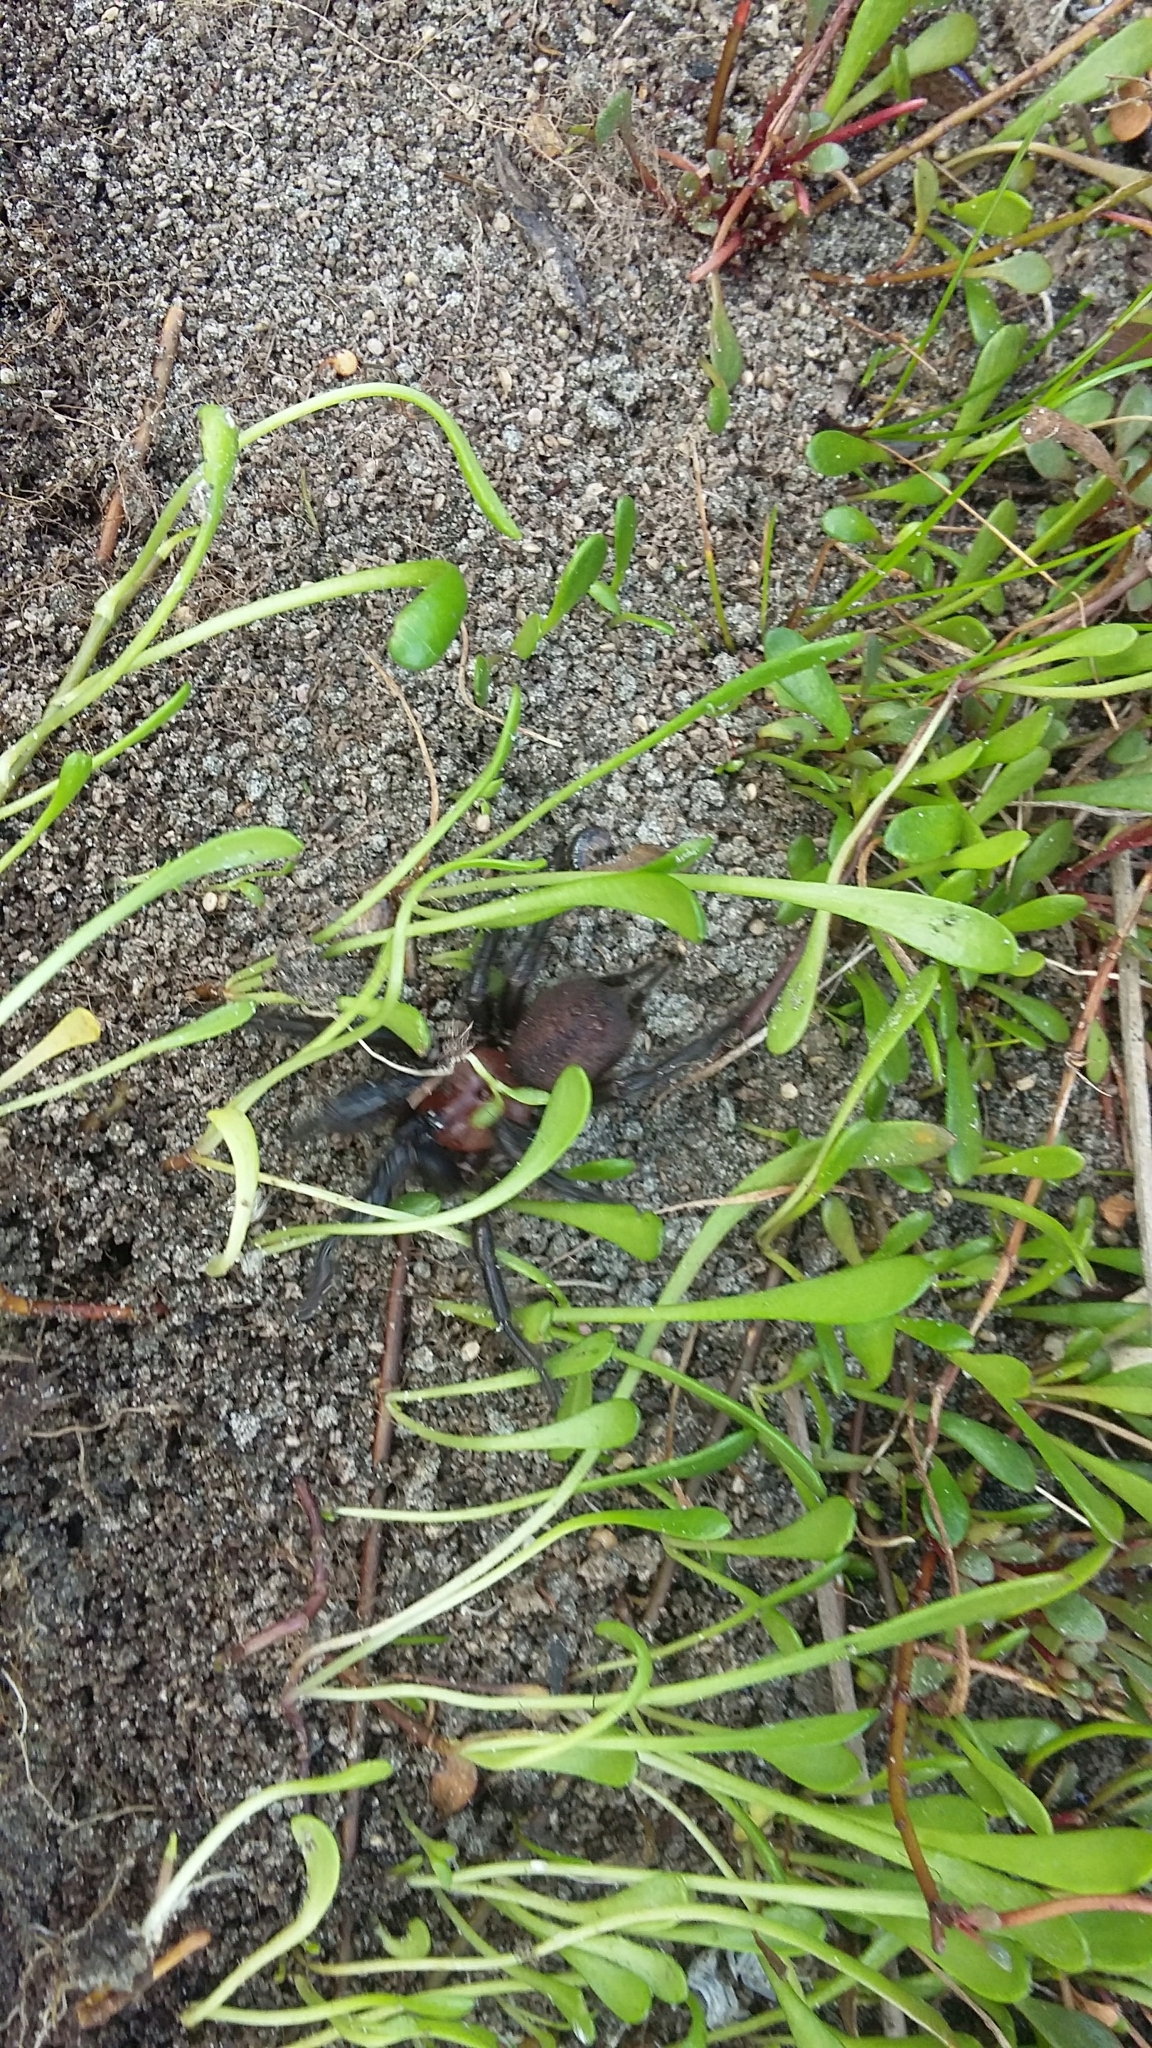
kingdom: Animalia
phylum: Arthropoda
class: Arachnida
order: Araneae
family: Porrhothelidae
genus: Porrhothele
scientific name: Porrhothele antipodiana
